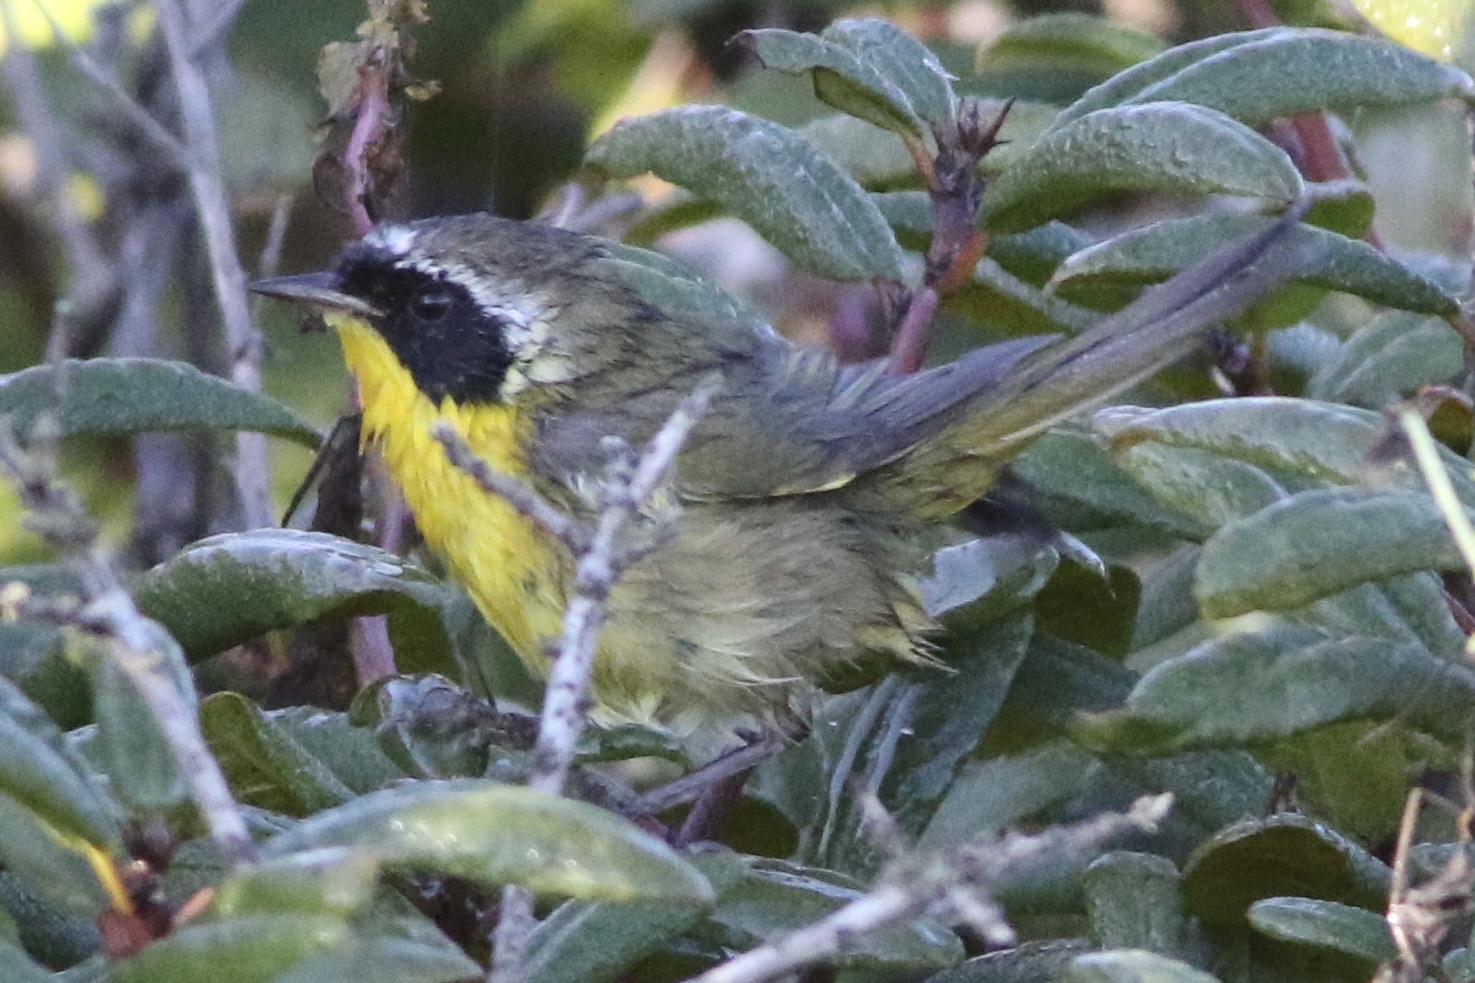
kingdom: Animalia
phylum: Chordata
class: Aves
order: Passeriformes
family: Parulidae
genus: Geothlypis
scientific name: Geothlypis trichas
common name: Common yellowthroat
